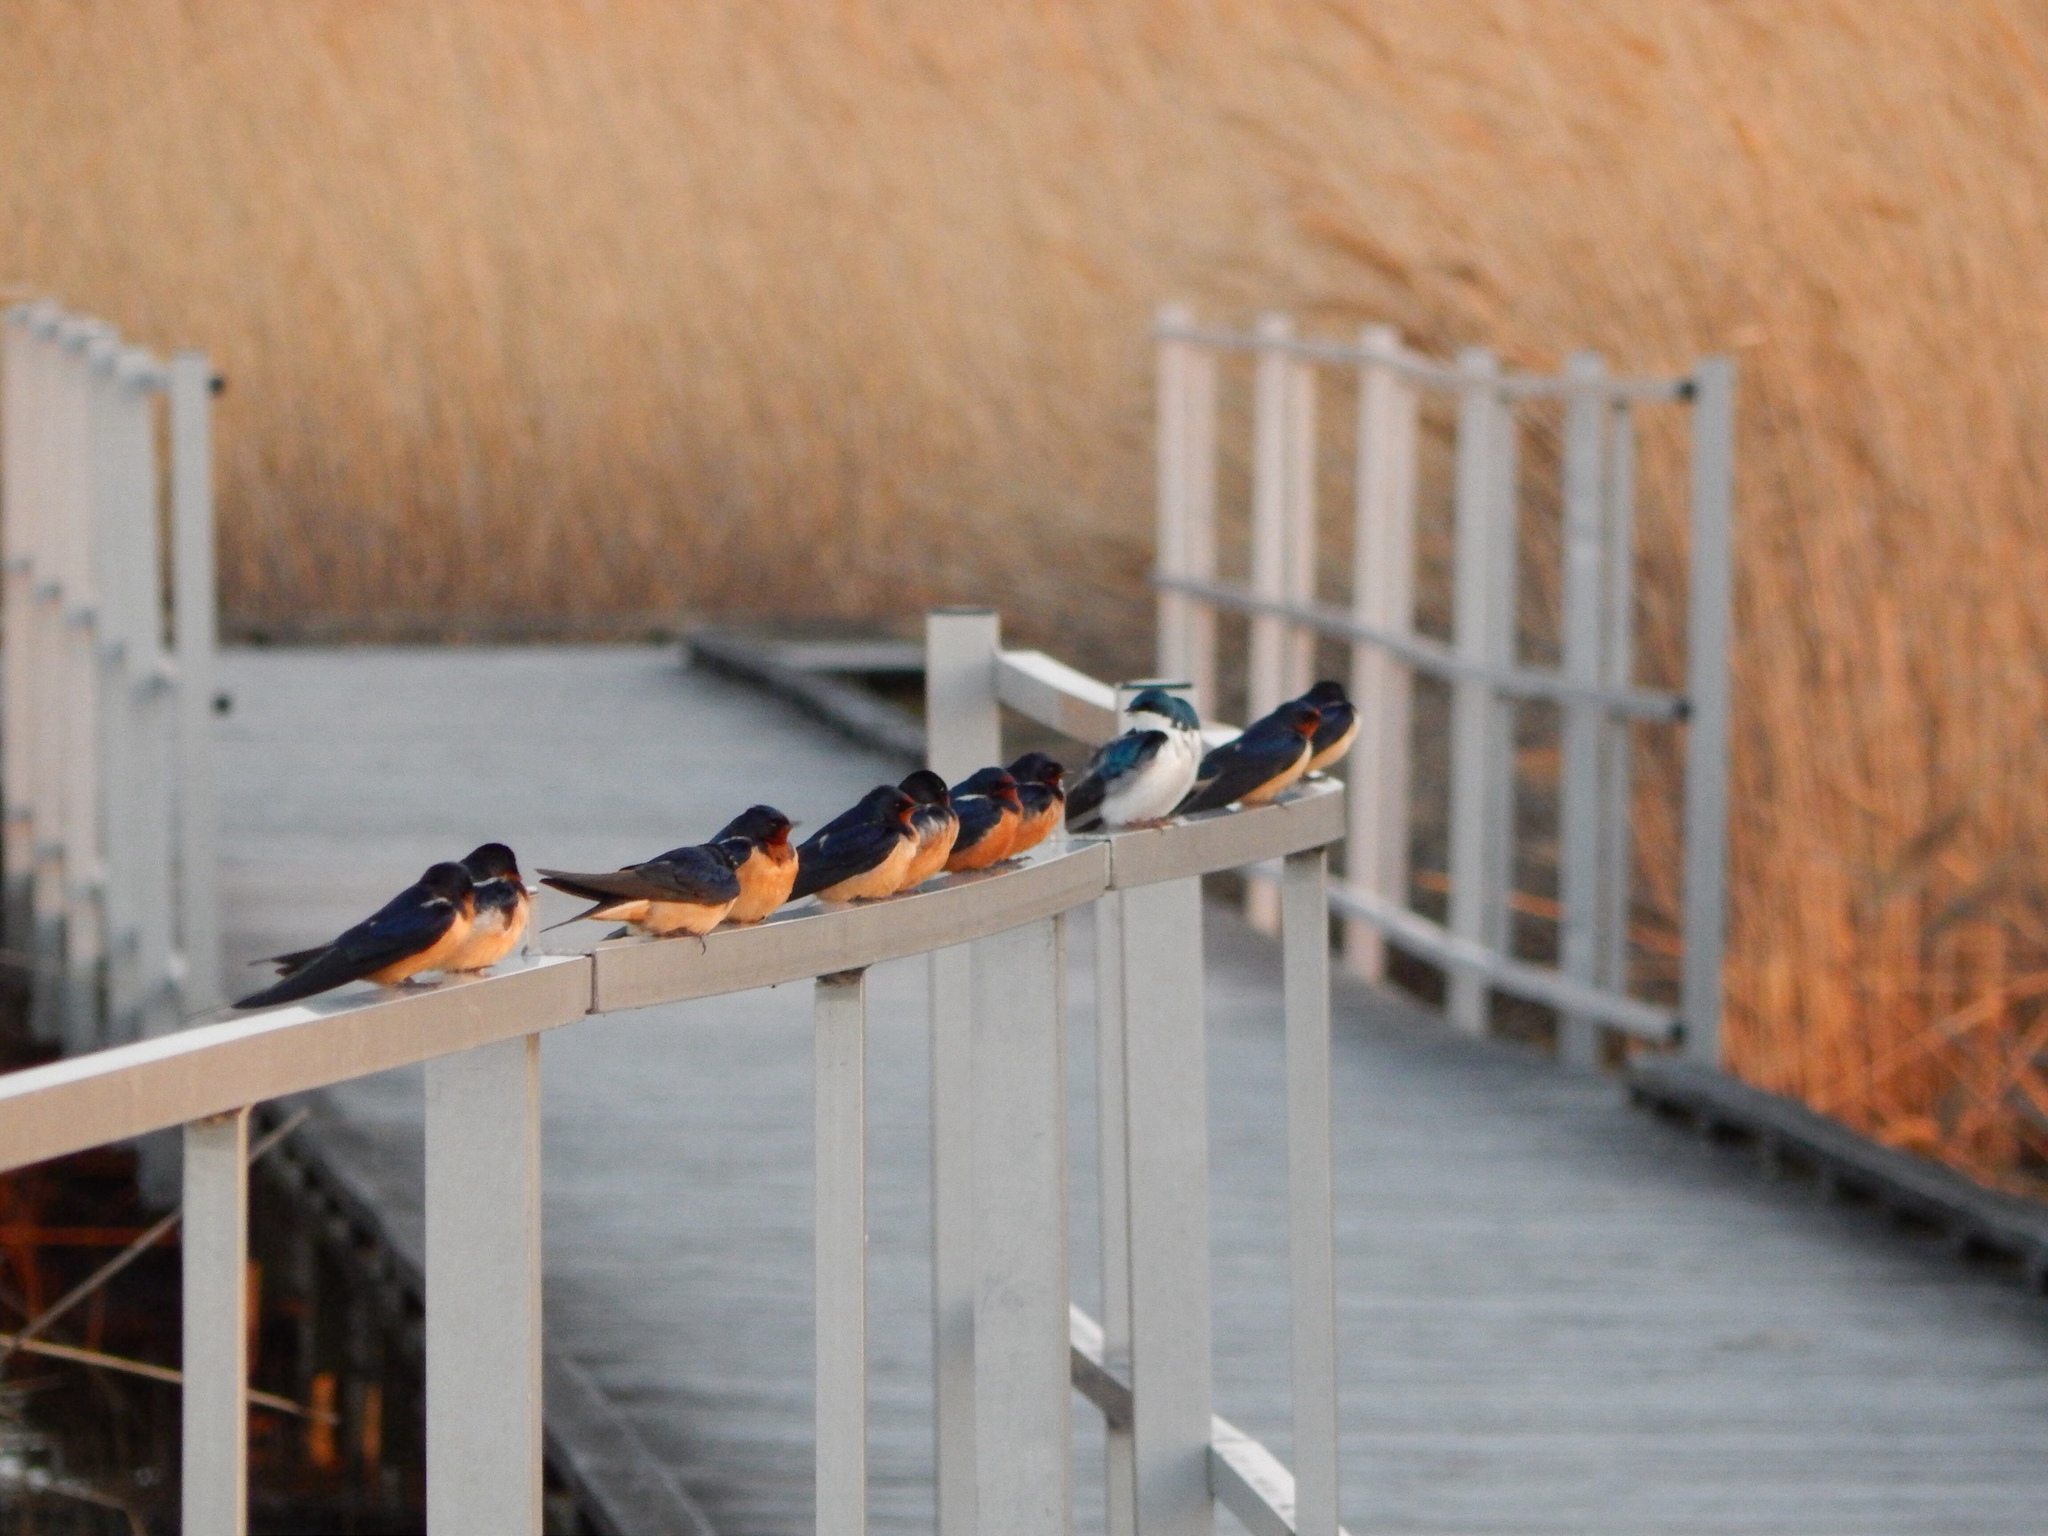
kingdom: Animalia
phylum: Chordata
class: Aves
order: Passeriformes
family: Hirundinidae
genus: Hirundo
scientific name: Hirundo rustica
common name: Barn swallow
